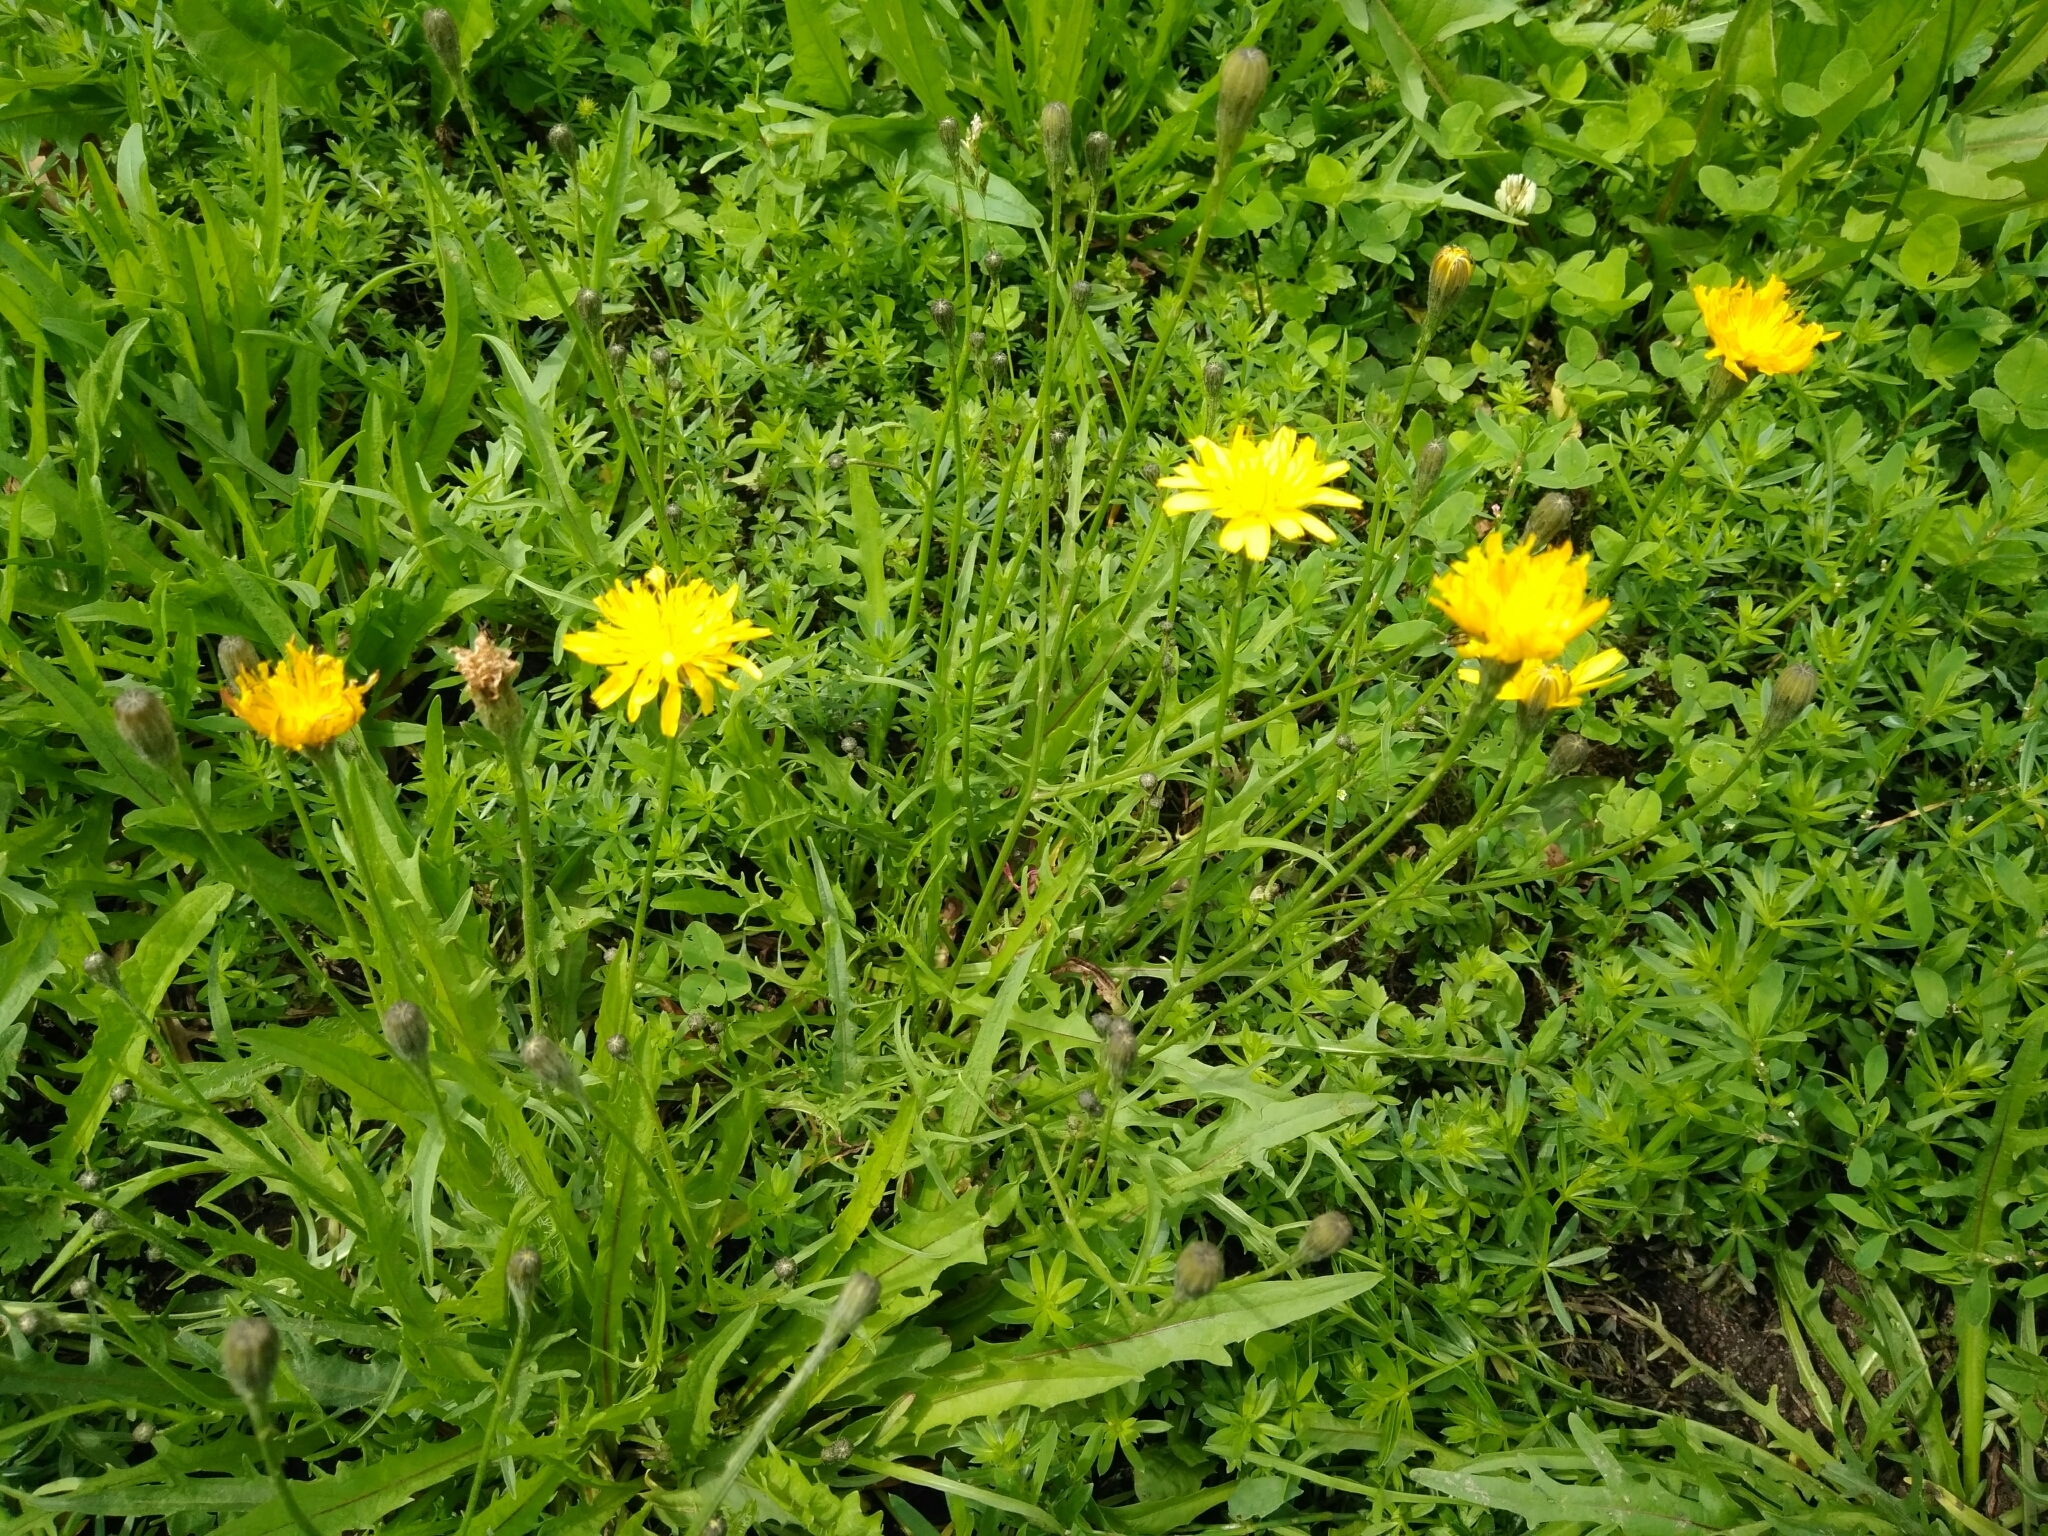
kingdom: Plantae
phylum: Tracheophyta
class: Magnoliopsida
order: Asterales
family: Asteraceae
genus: Scorzoneroides
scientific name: Scorzoneroides autumnalis
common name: Autumn hawkbit
